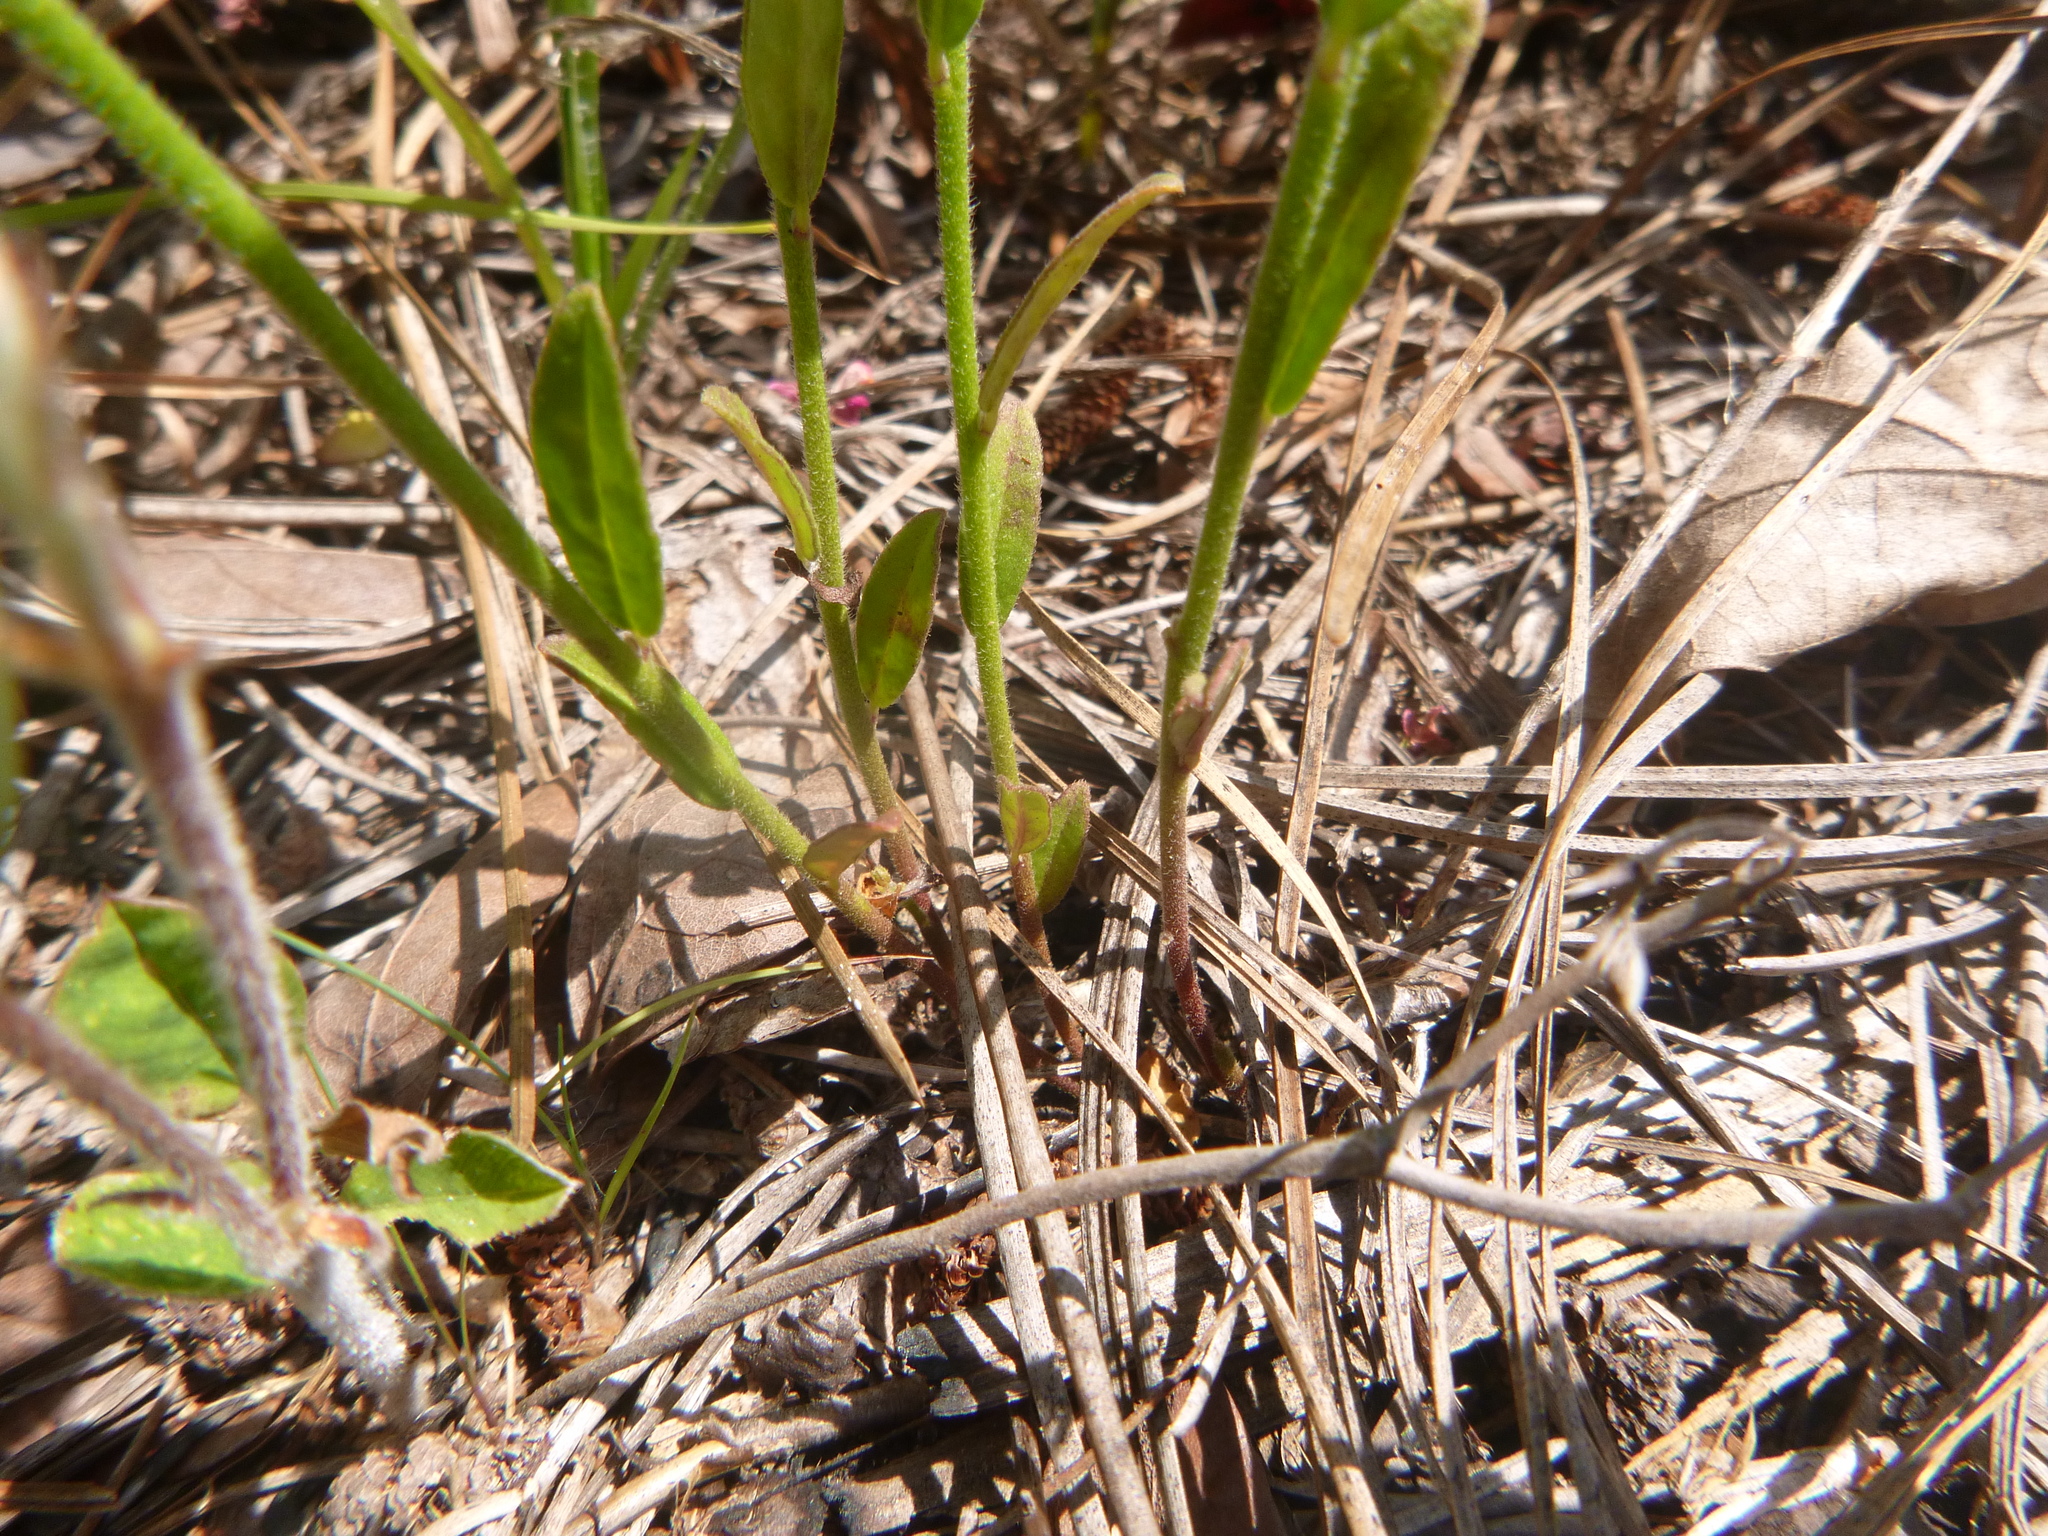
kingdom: Plantae
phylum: Tracheophyta
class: Magnoliopsida
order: Fabales
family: Polygalaceae
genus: Asemeia
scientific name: Asemeia grandiflora
